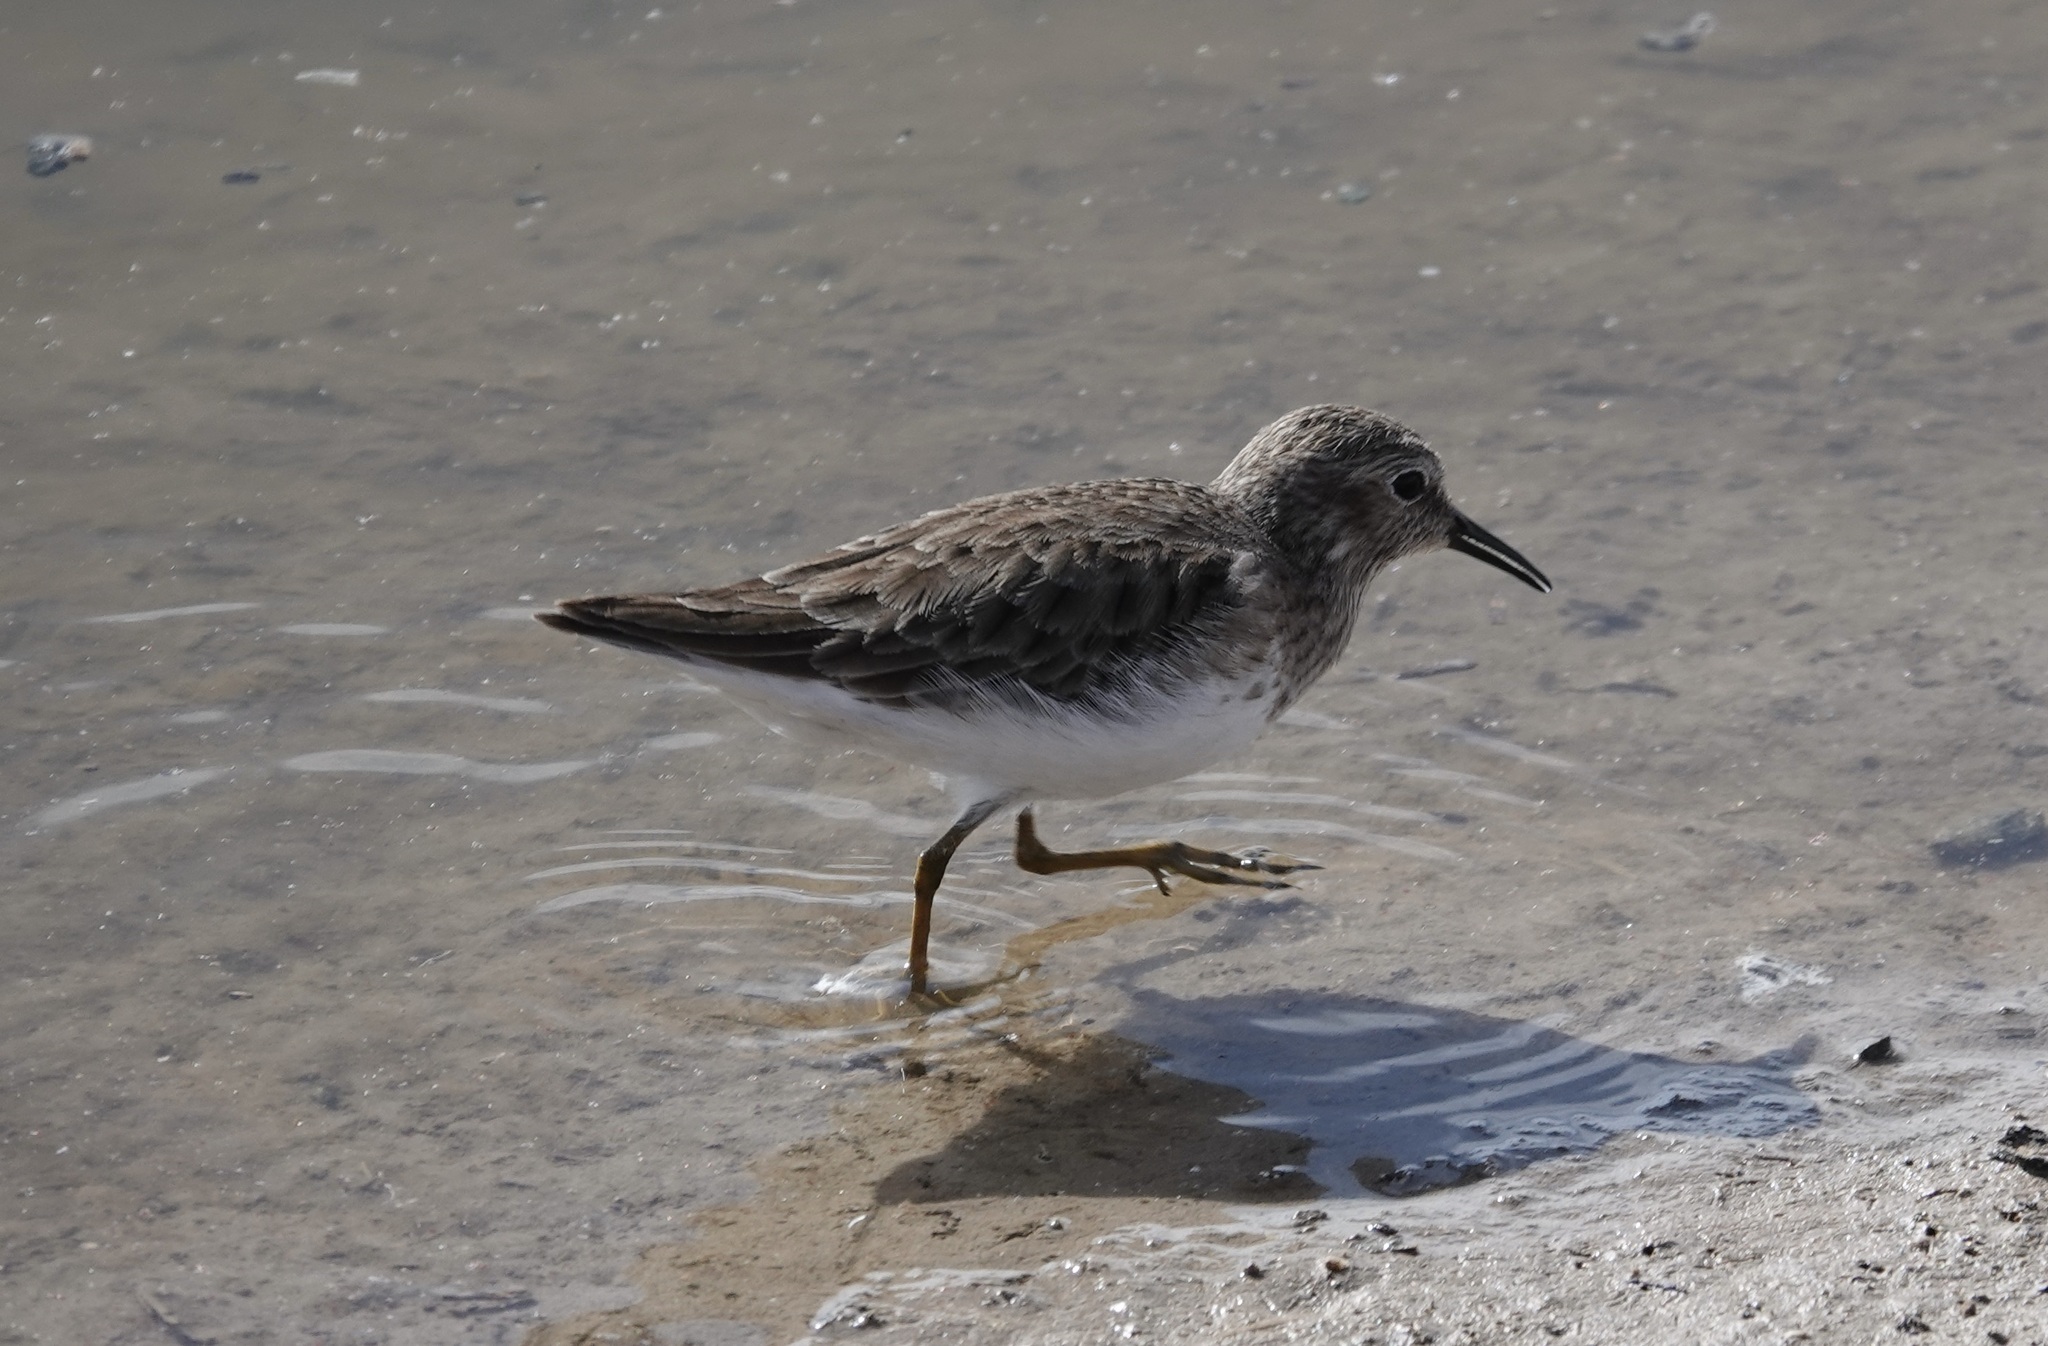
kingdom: Animalia
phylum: Chordata
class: Aves
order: Charadriiformes
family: Scolopacidae
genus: Calidris
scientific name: Calidris minutilla
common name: Least sandpiper
